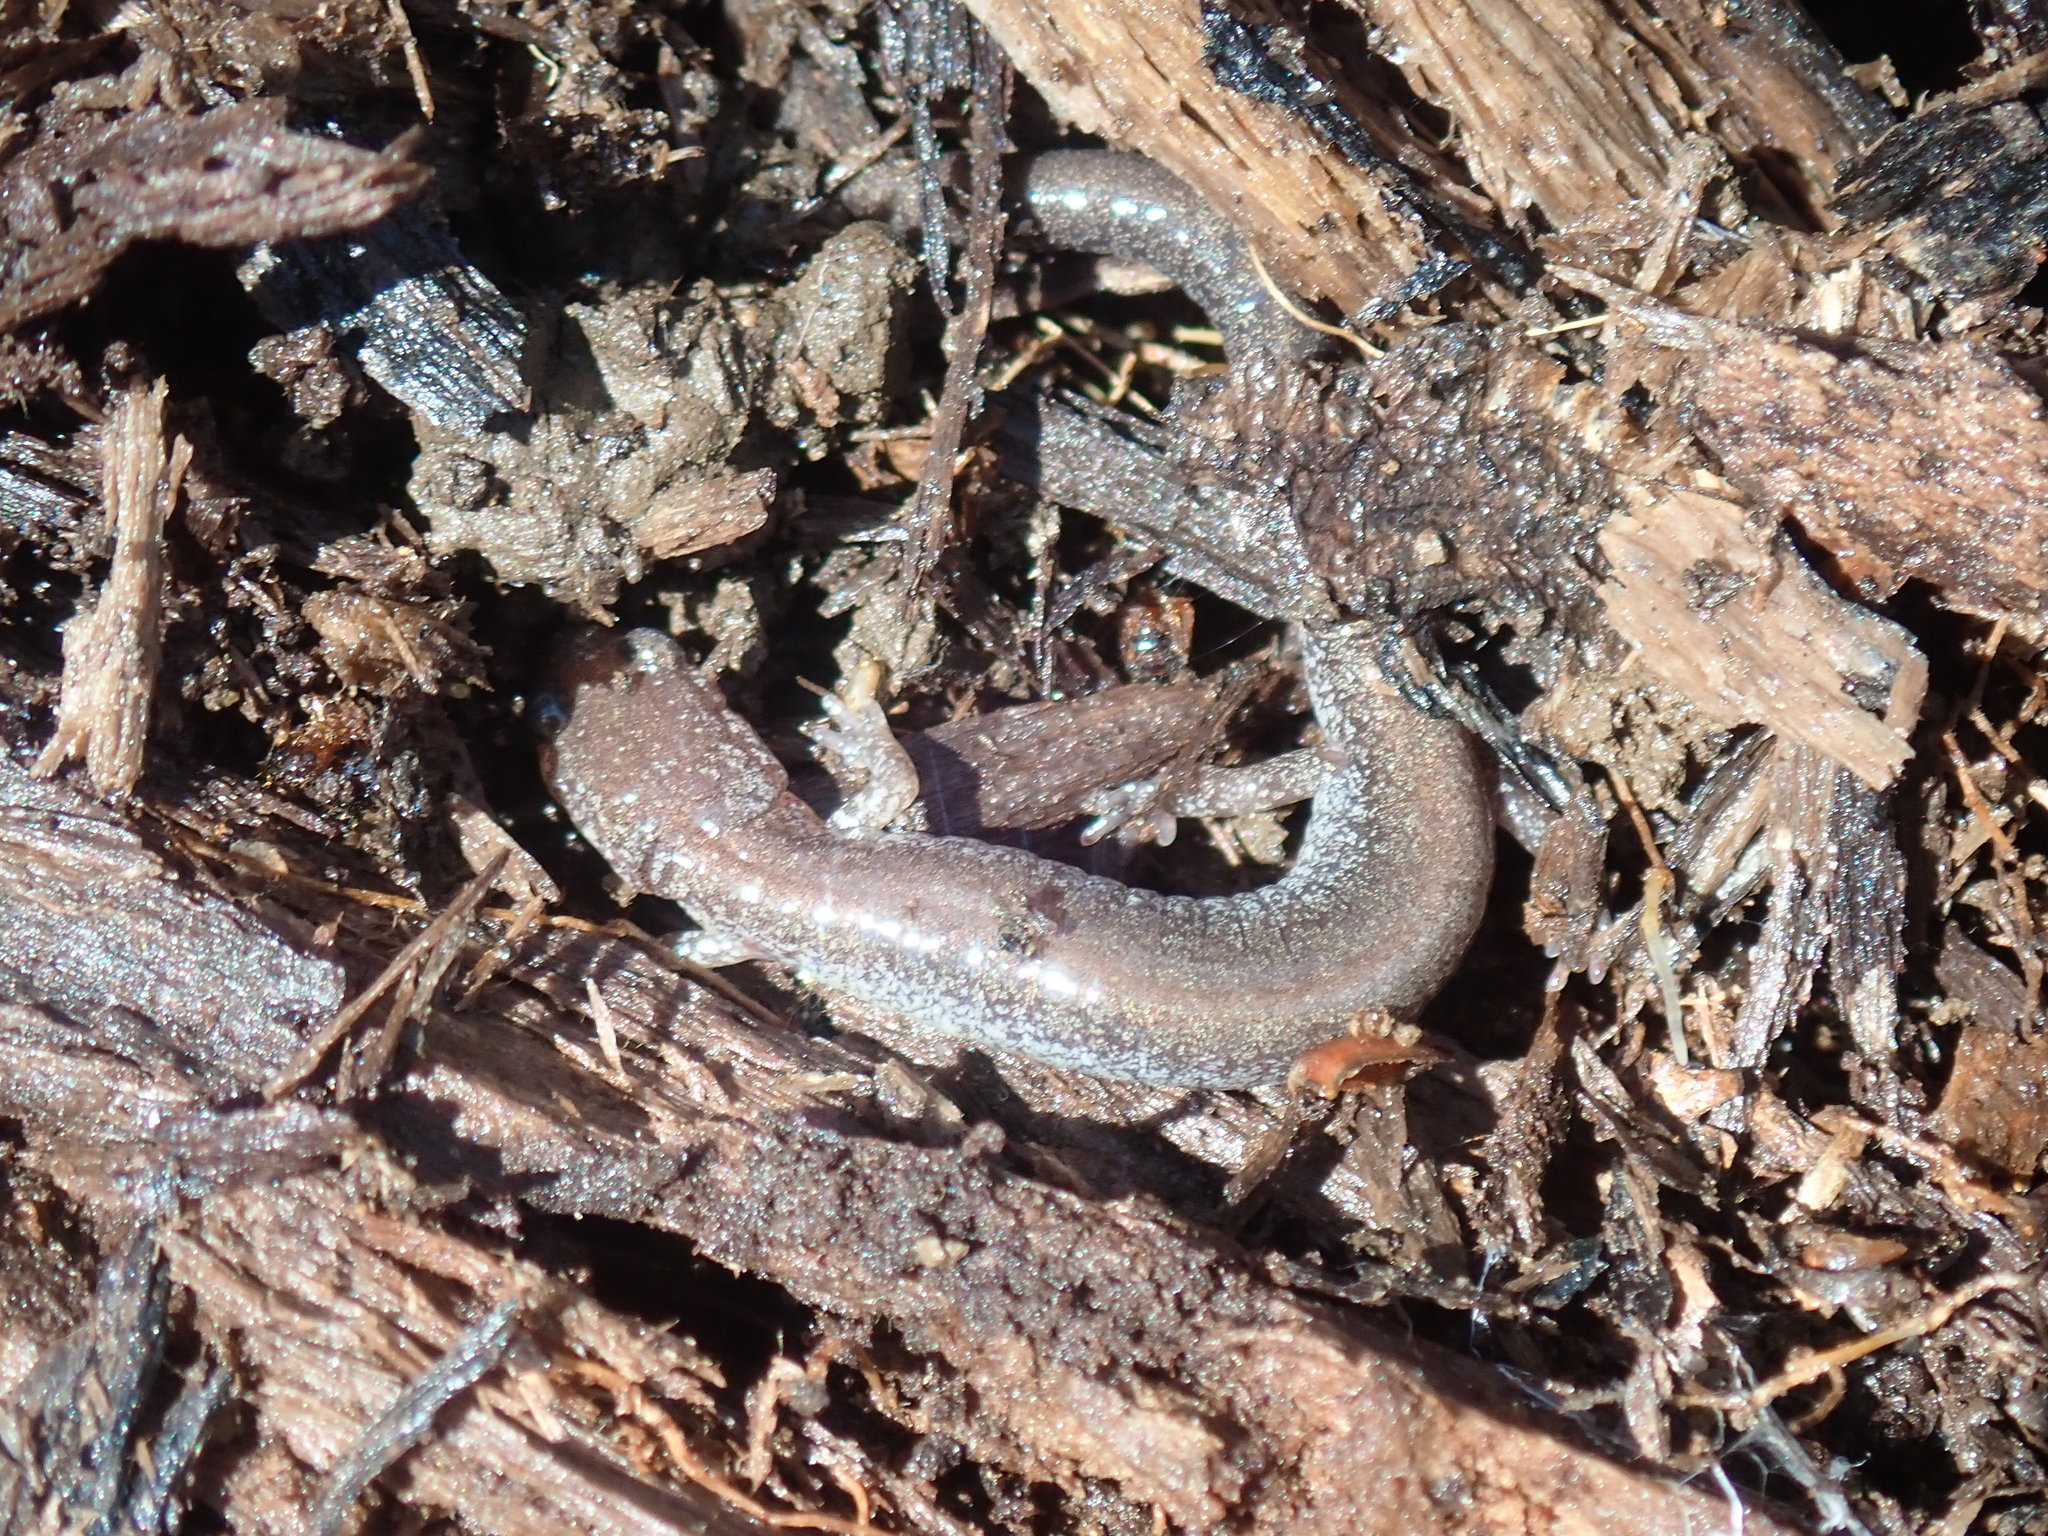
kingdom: Animalia
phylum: Chordata
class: Amphibia
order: Caudata
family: Plethodontidae
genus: Plethodon
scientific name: Plethodon cinereus
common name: Redback salamander
